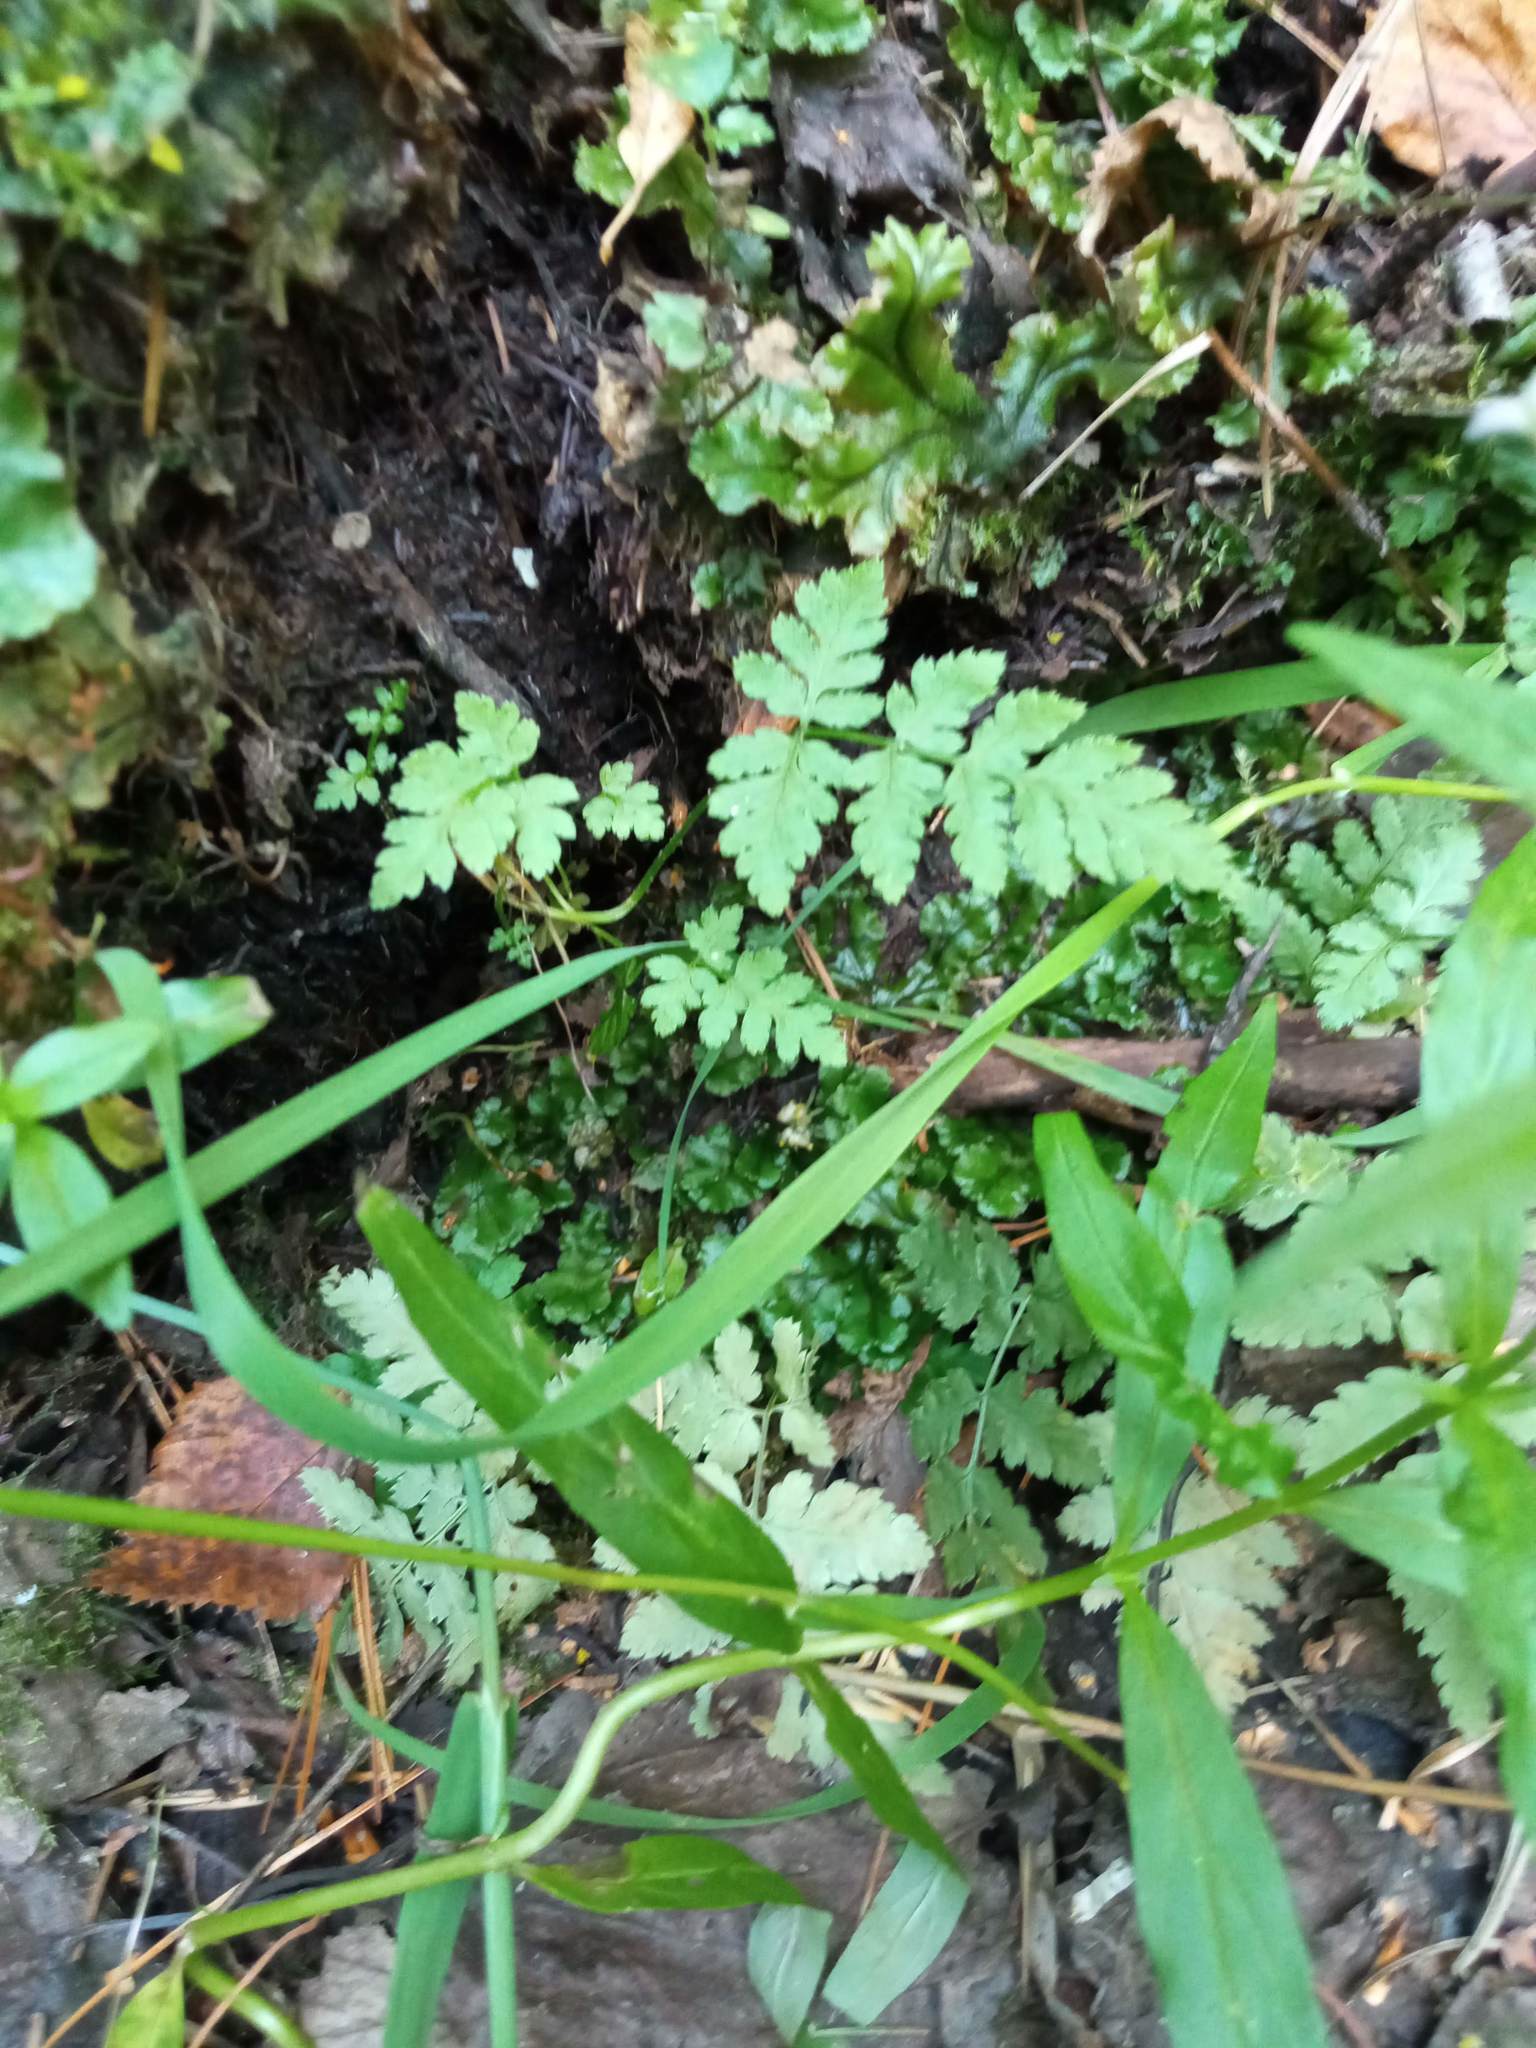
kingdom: Plantae
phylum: Tracheophyta
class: Polypodiopsida
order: Polypodiales
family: Dryopteridaceae
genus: Dryopteris
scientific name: Dryopteris carthusiana
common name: Narrow buckler-fern
